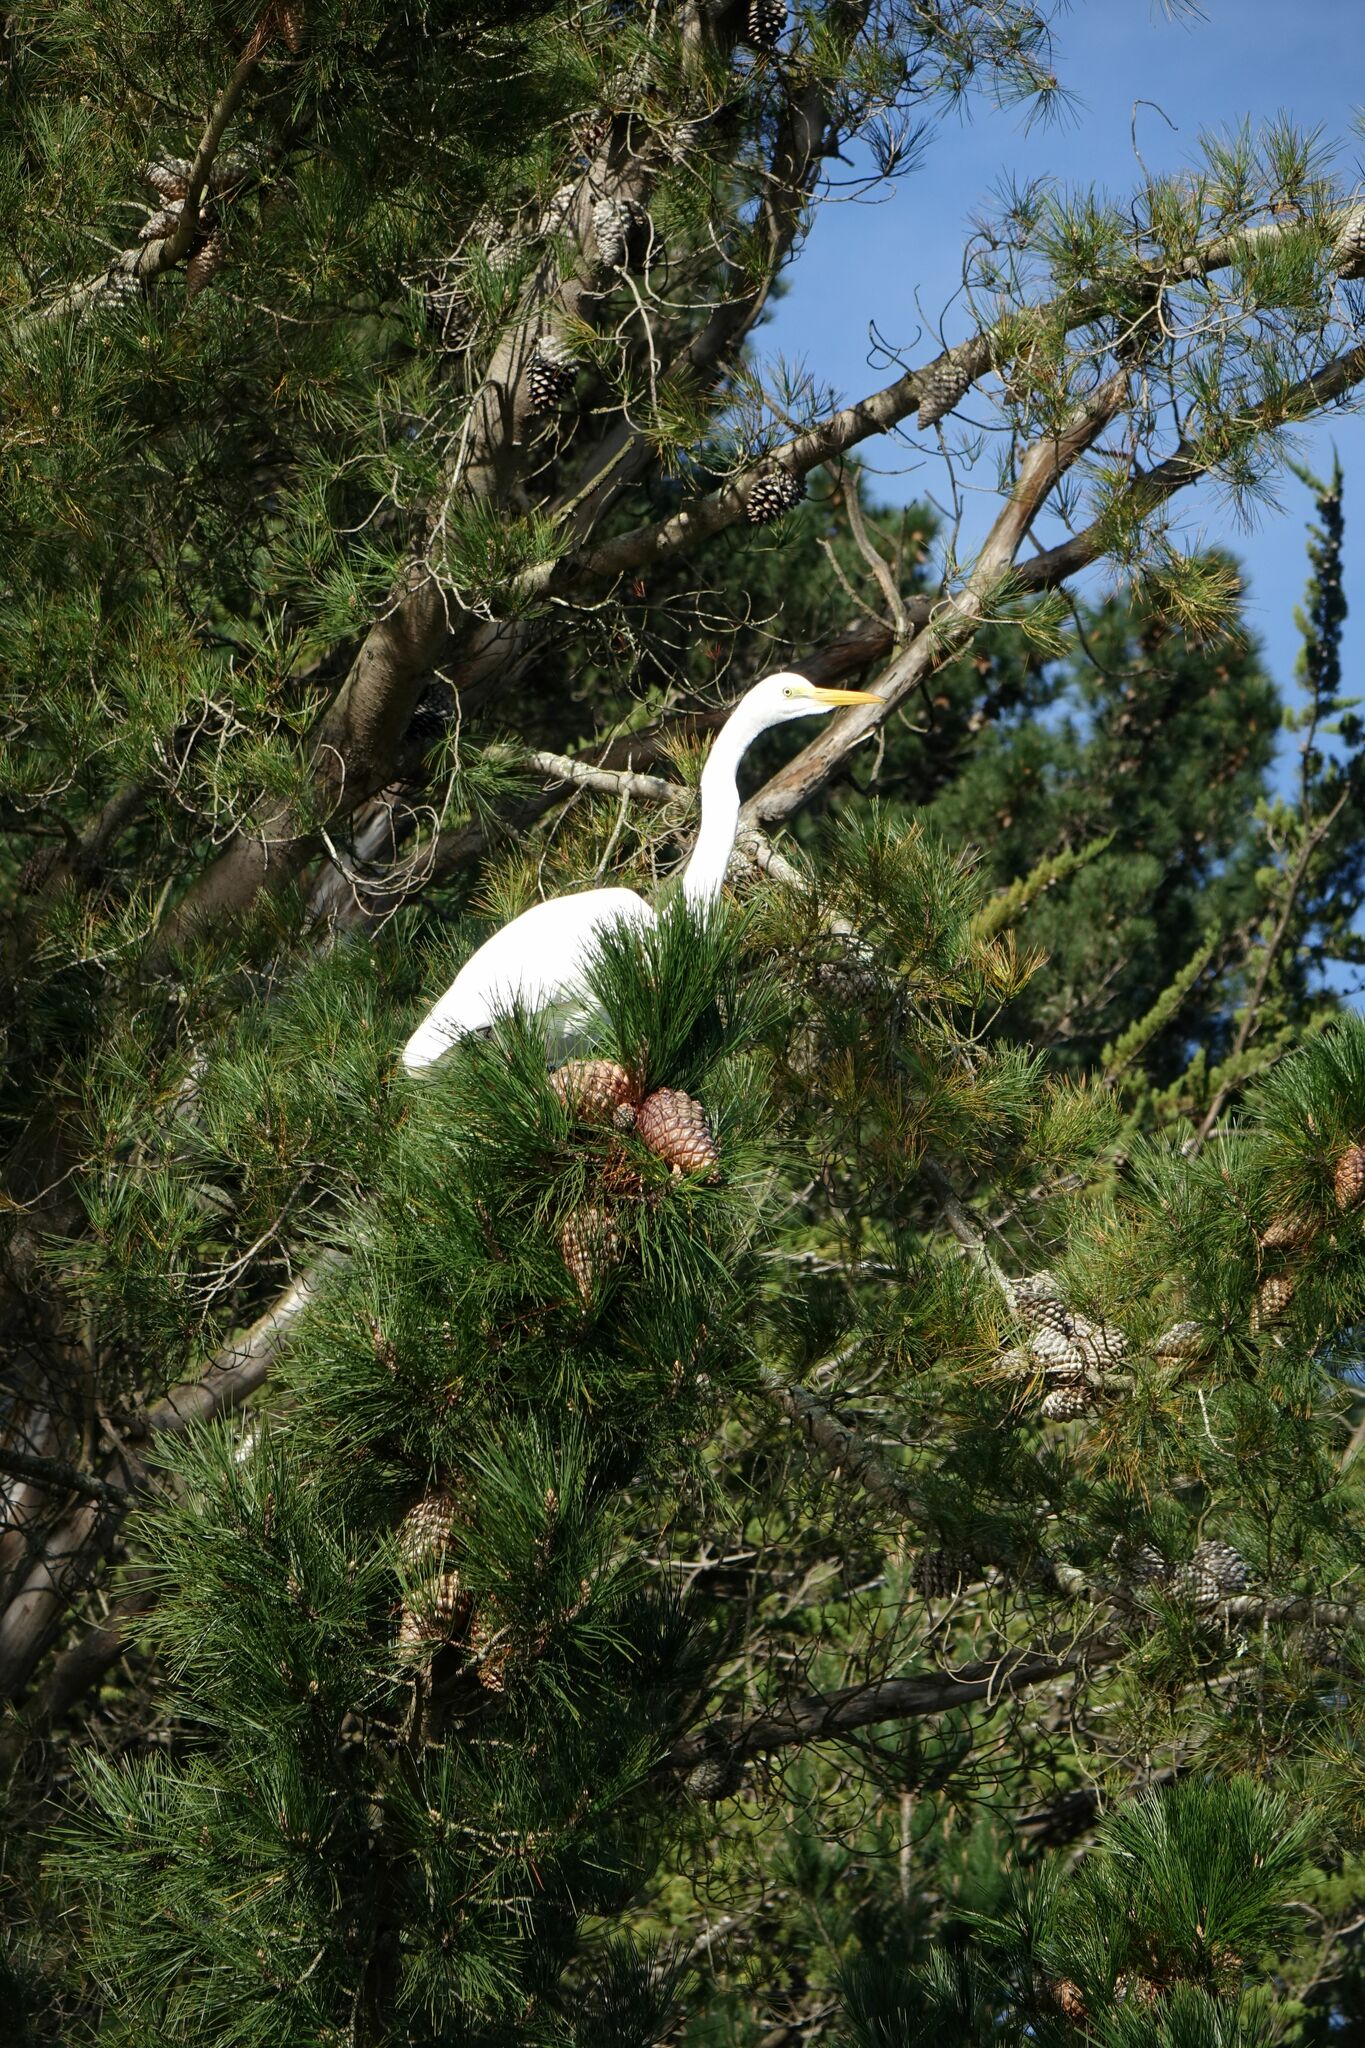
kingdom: Animalia
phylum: Chordata
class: Aves
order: Pelecaniformes
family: Ardeidae
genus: Ardea
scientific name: Ardea alba
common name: Great egret
